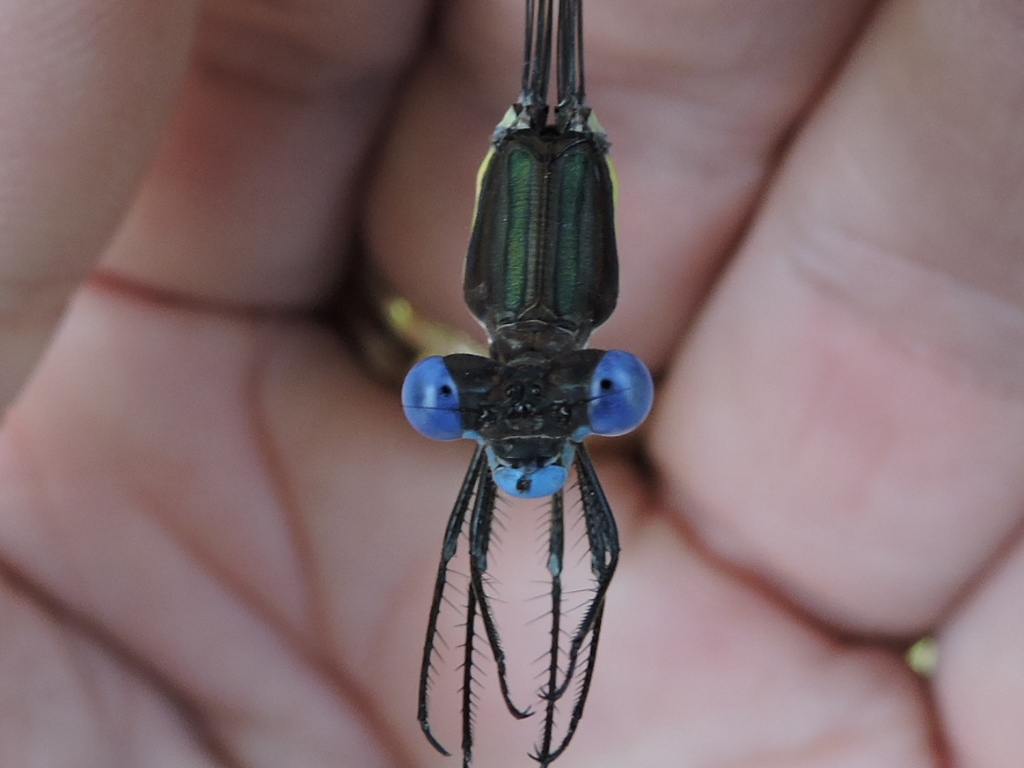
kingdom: Animalia
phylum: Arthropoda
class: Insecta
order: Odonata
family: Lestidae
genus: Archilestes
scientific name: Archilestes grandis
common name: Great spreadwing
